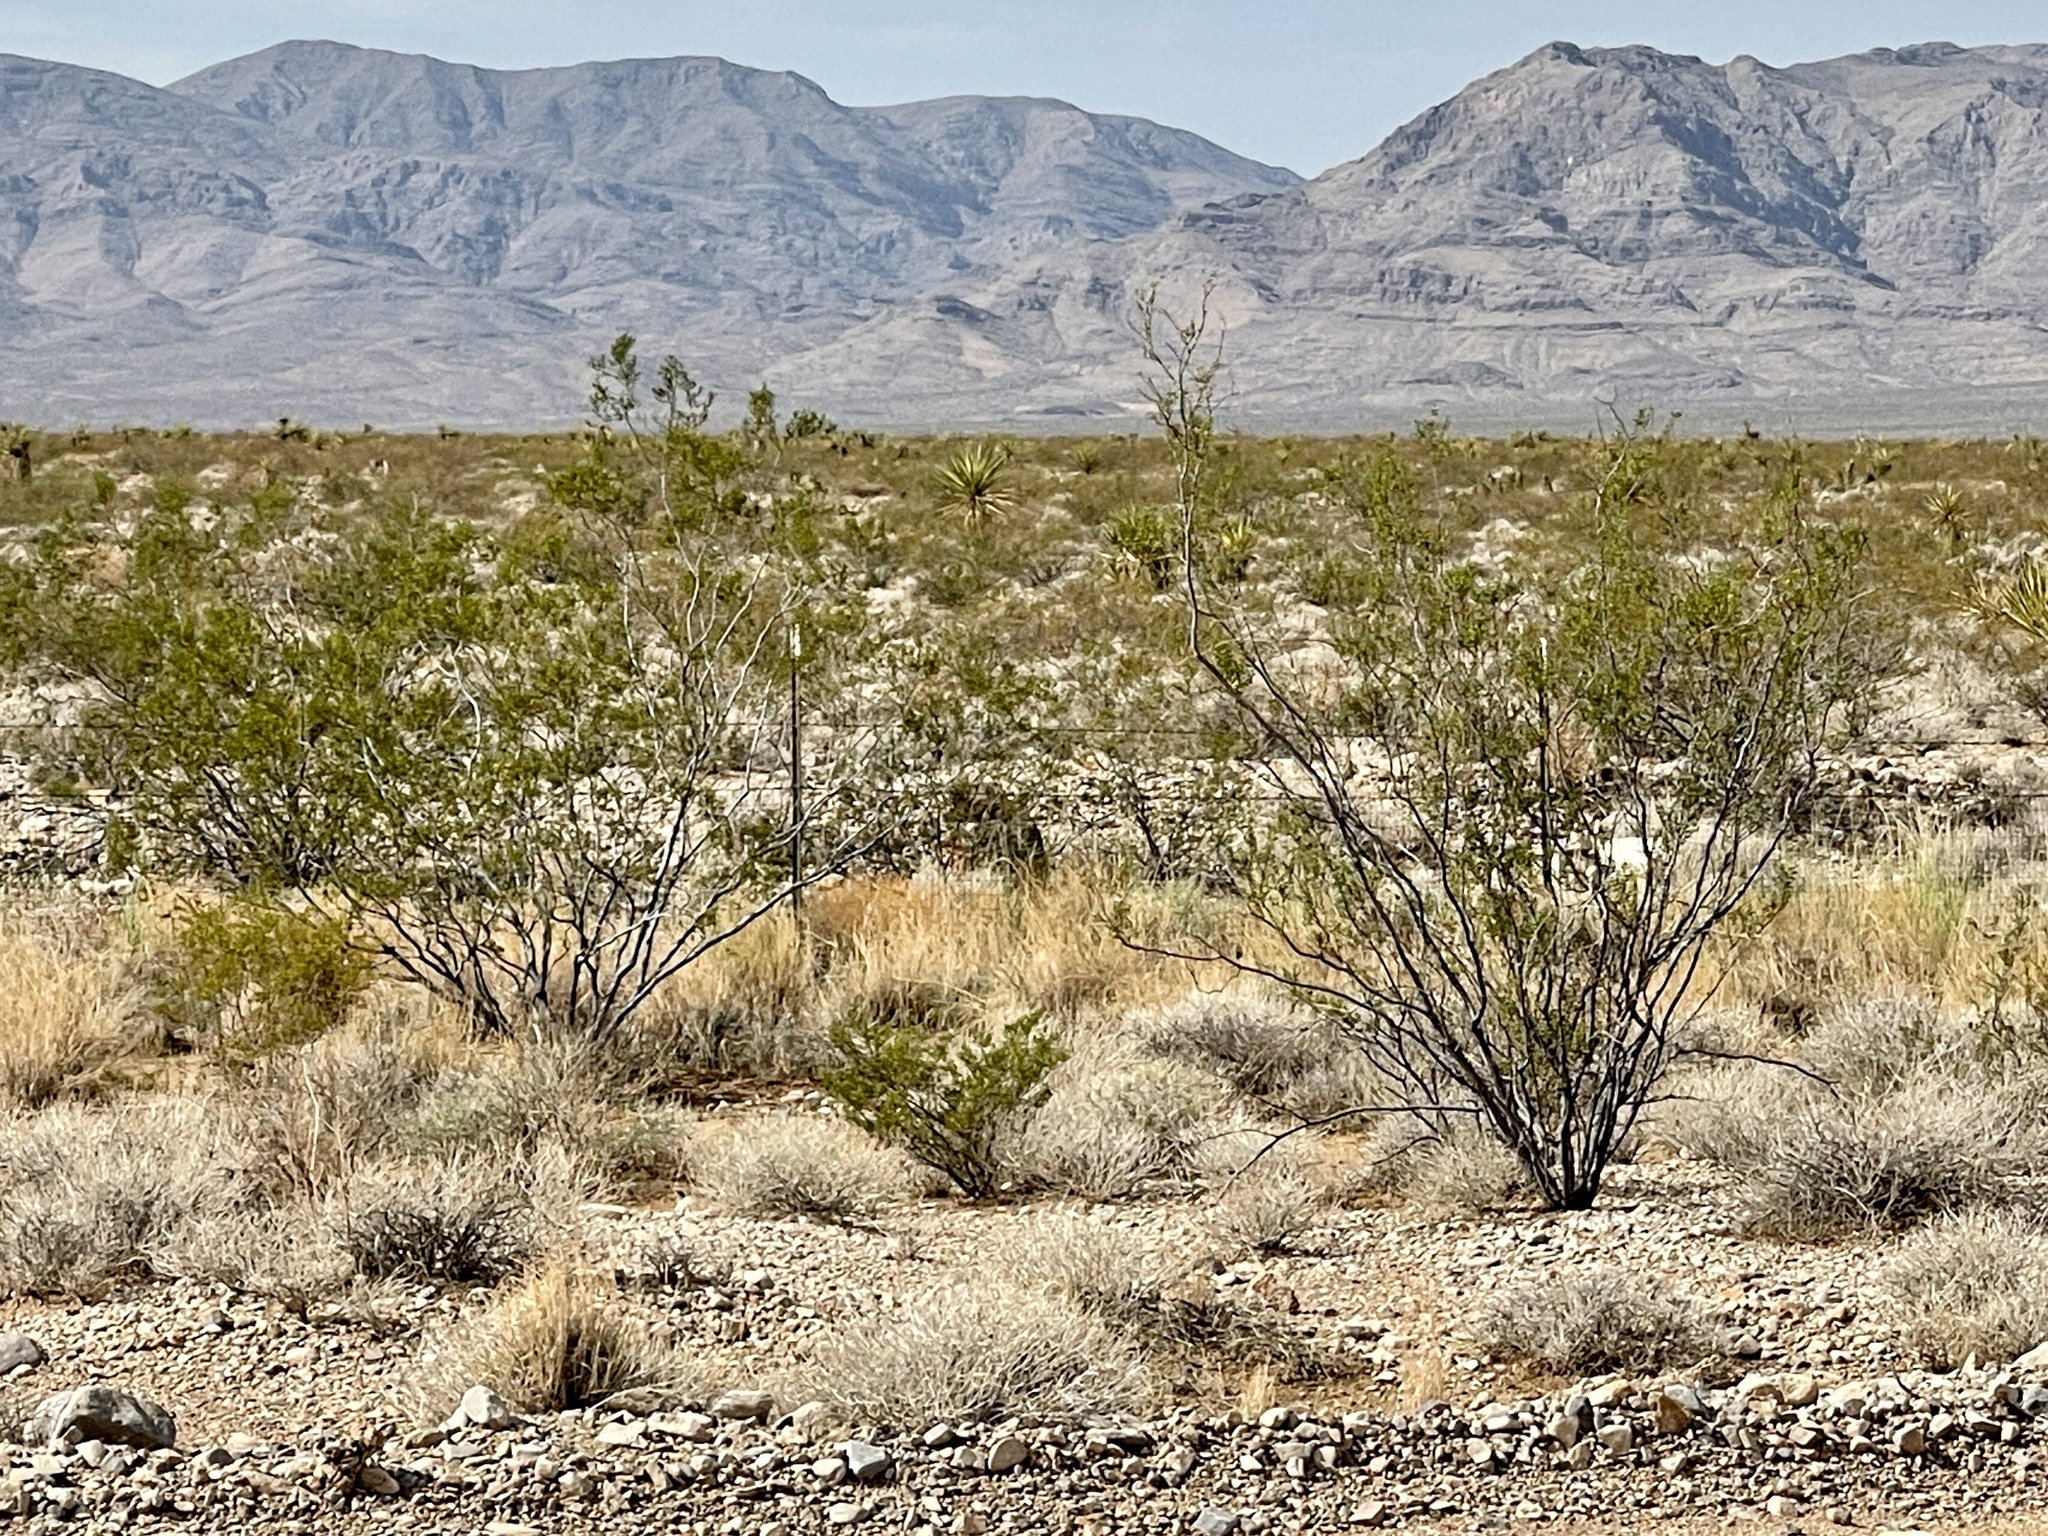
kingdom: Plantae
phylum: Tracheophyta
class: Magnoliopsida
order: Zygophyllales
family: Zygophyllaceae
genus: Larrea
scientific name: Larrea tridentata
